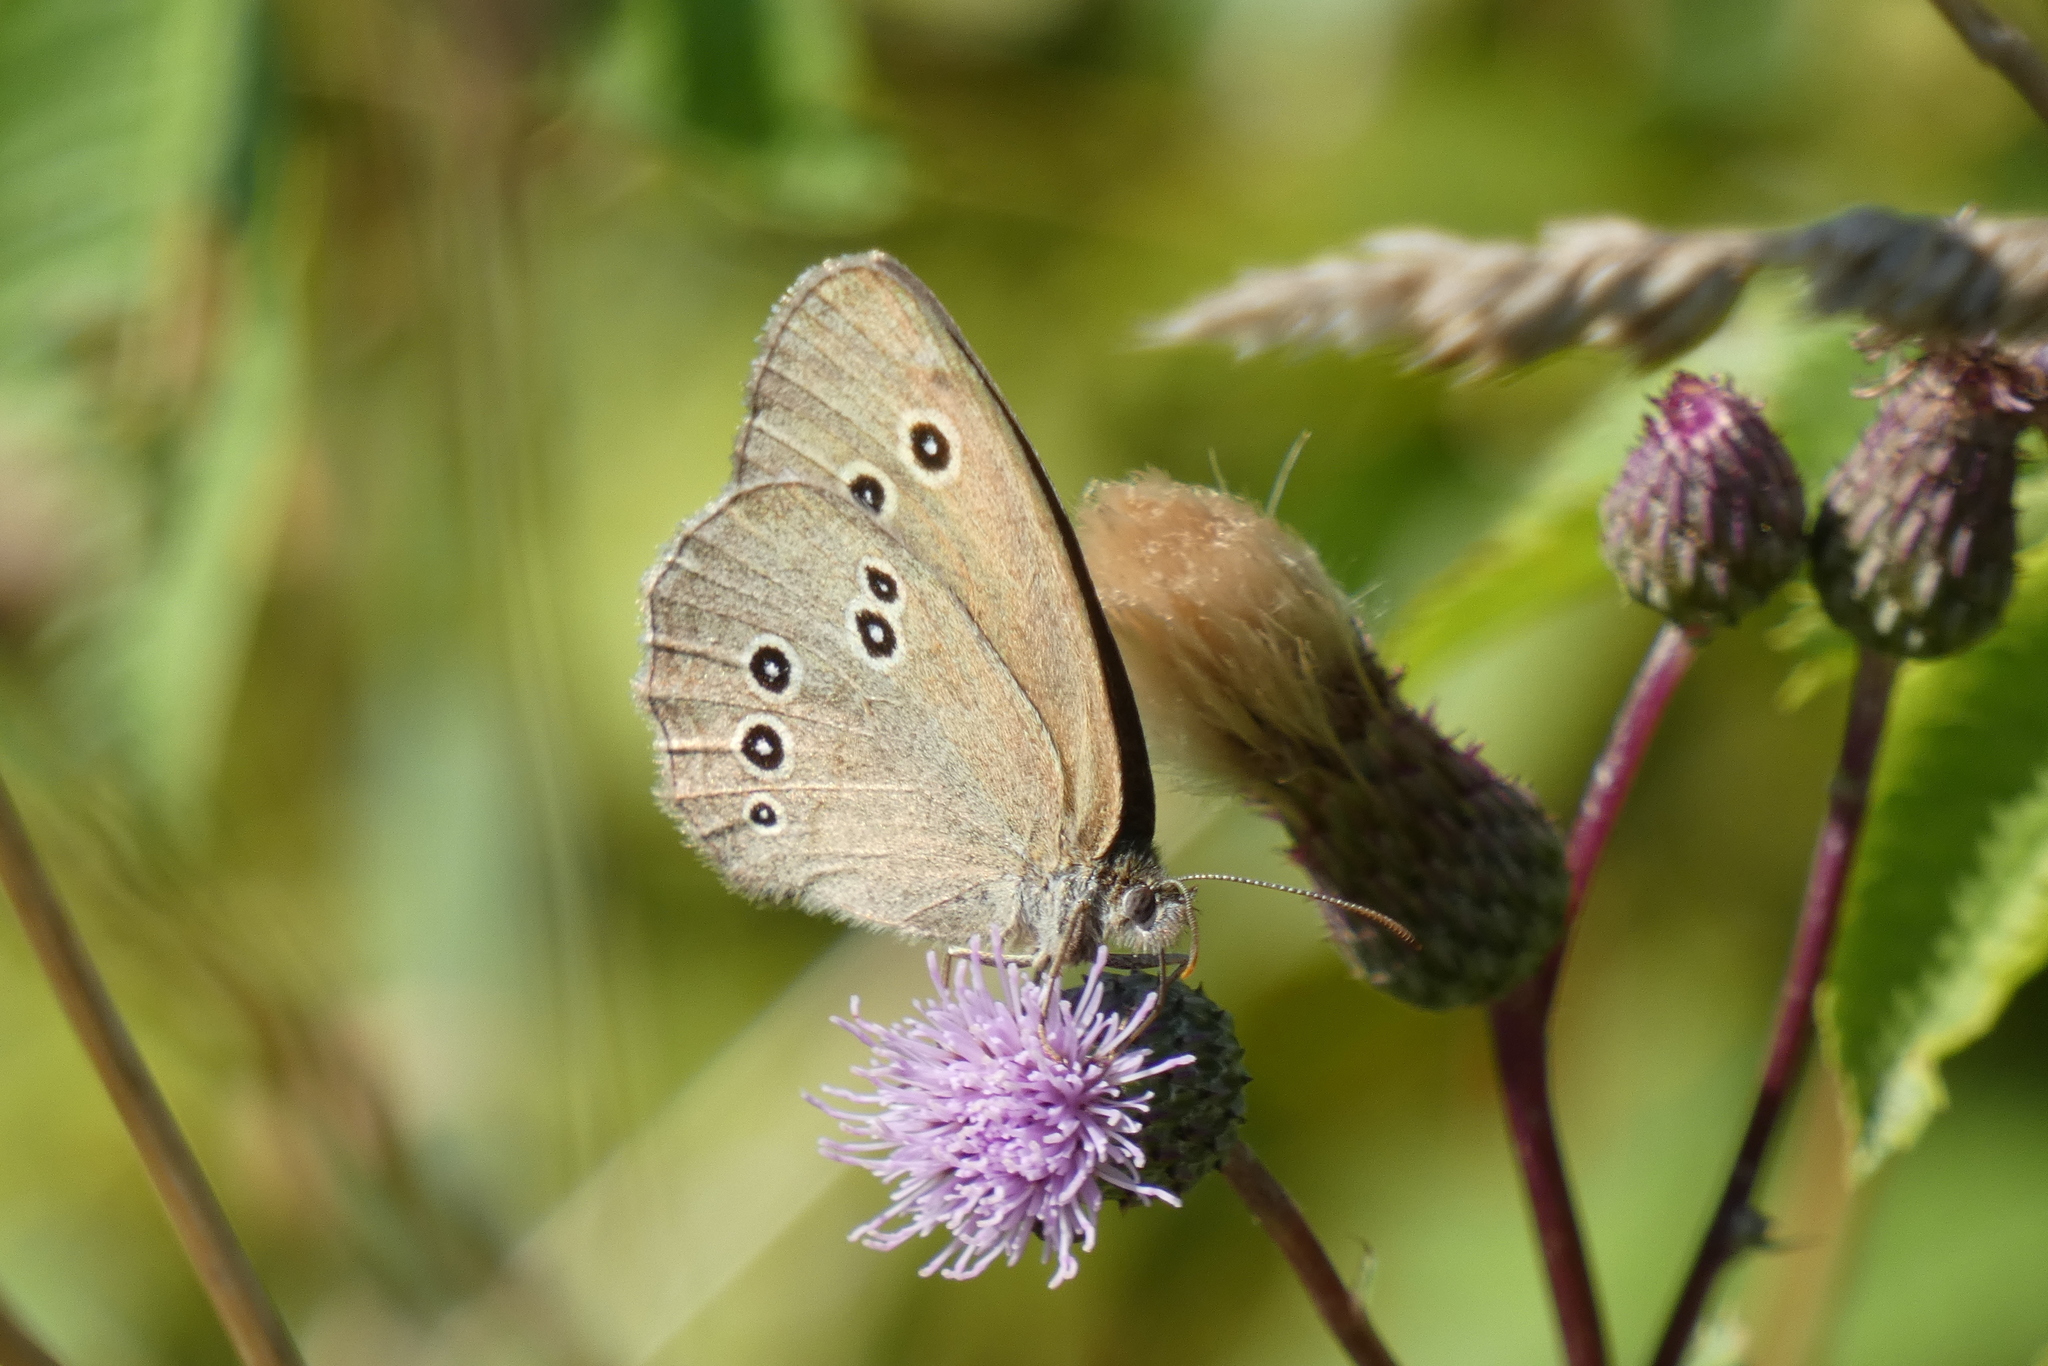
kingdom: Animalia
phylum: Arthropoda
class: Insecta
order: Lepidoptera
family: Nymphalidae
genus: Aphantopus
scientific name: Aphantopus hyperantus
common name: Ringlet
